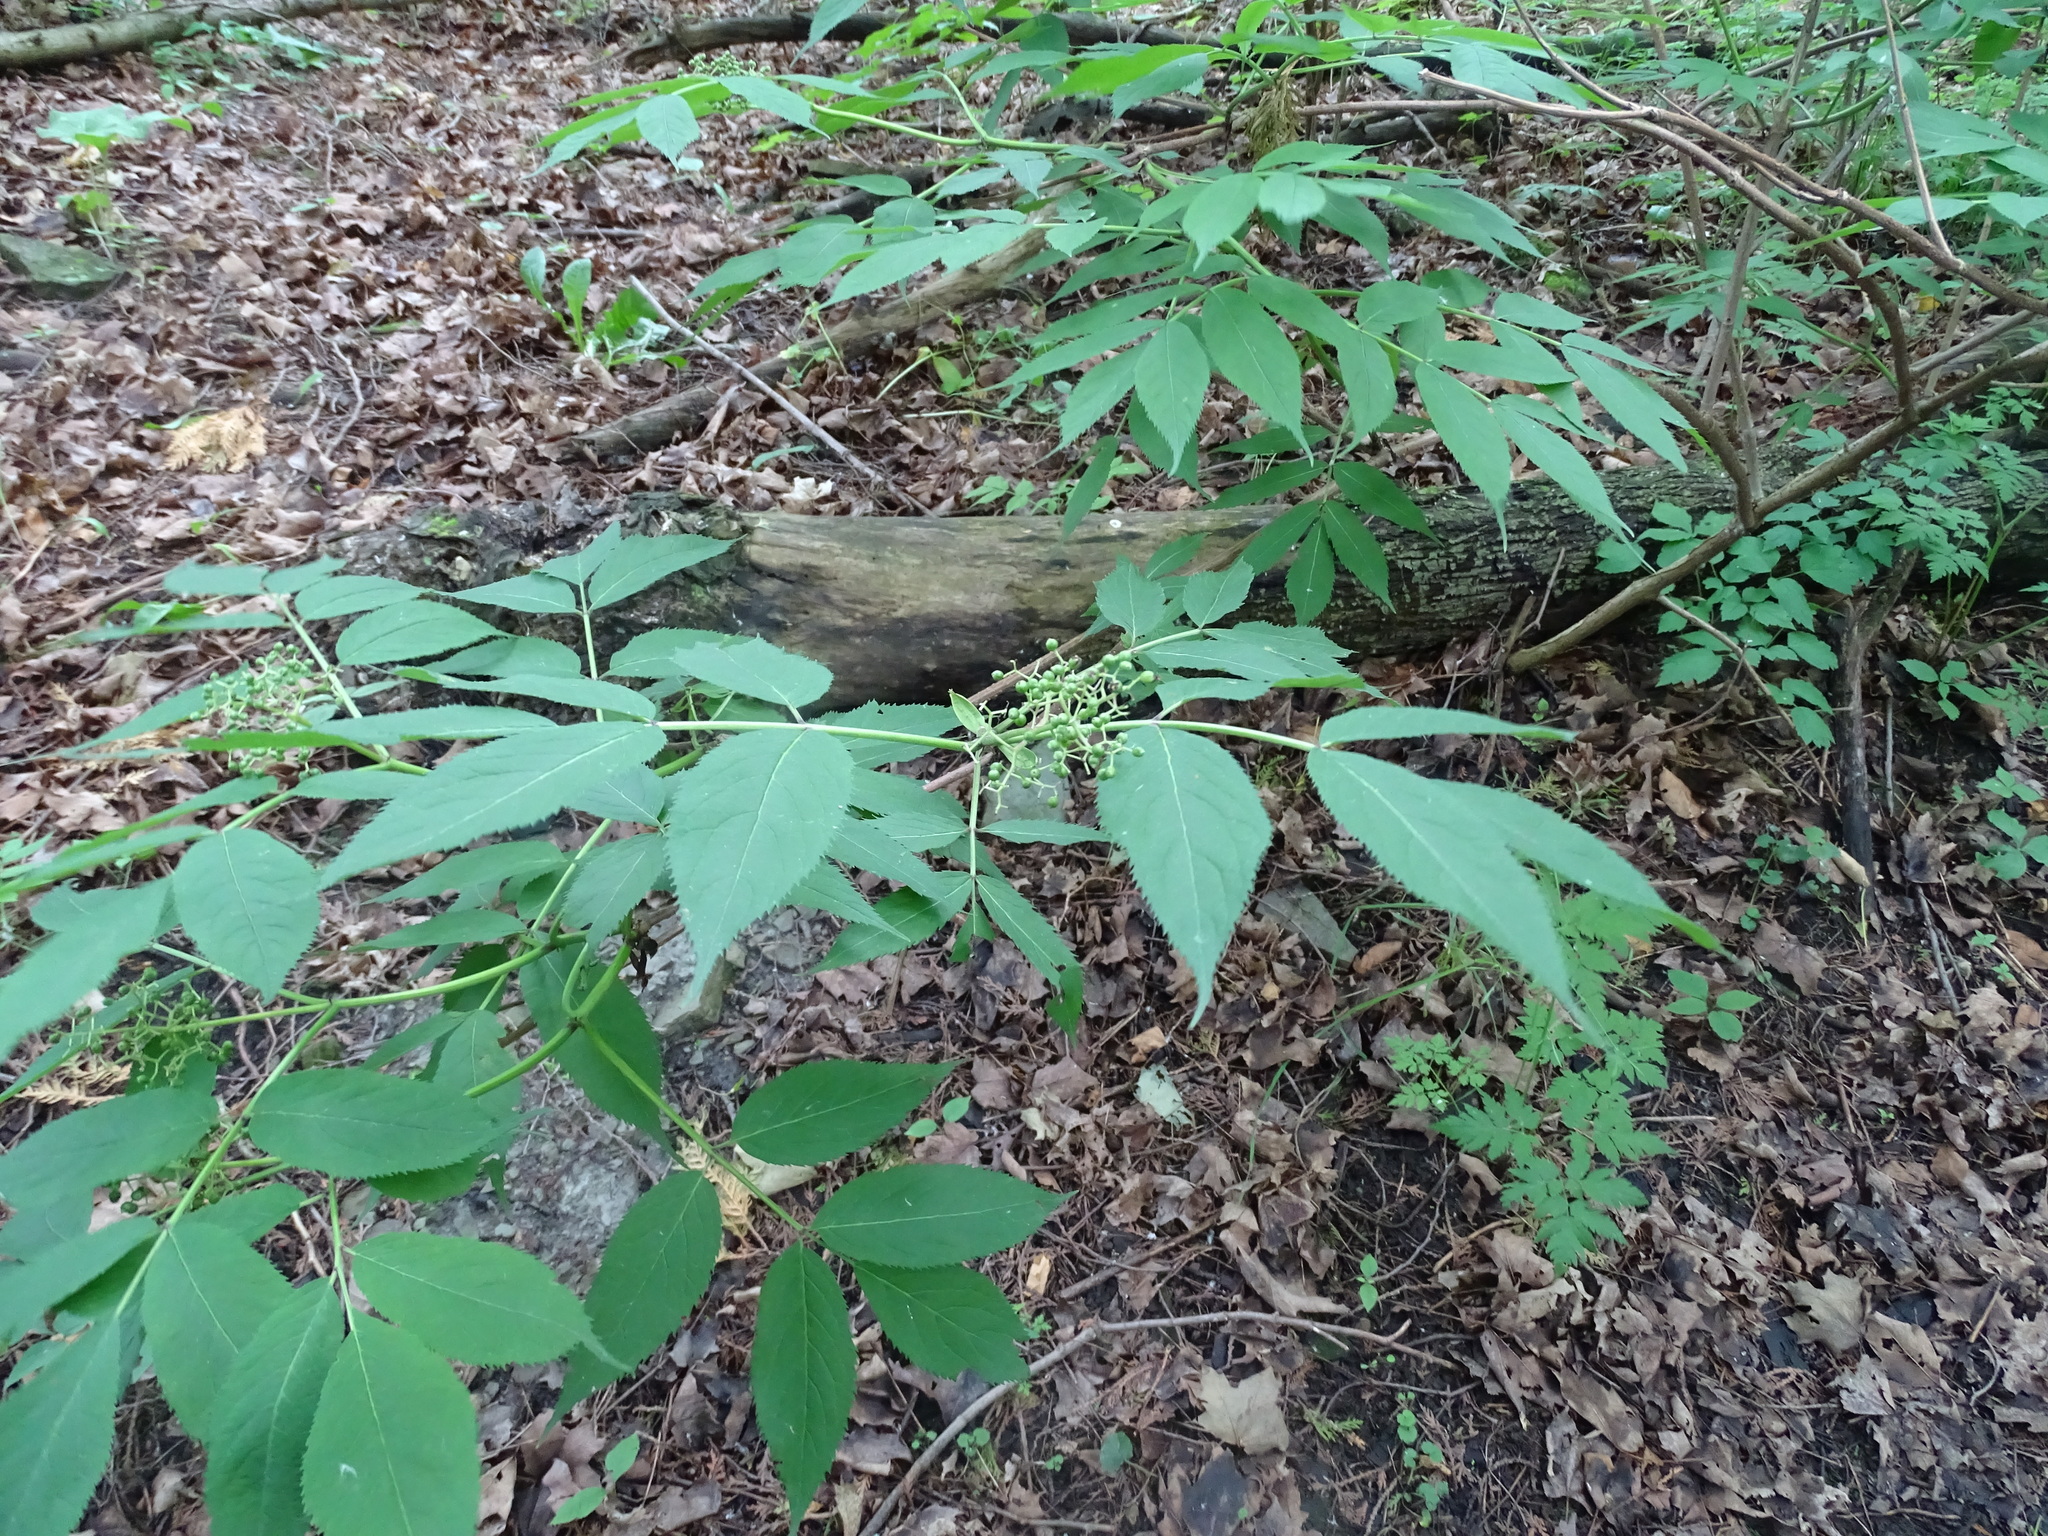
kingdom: Plantae
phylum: Tracheophyta
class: Magnoliopsida
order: Dipsacales
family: Viburnaceae
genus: Sambucus
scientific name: Sambucus racemosa
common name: Red-berried elder
